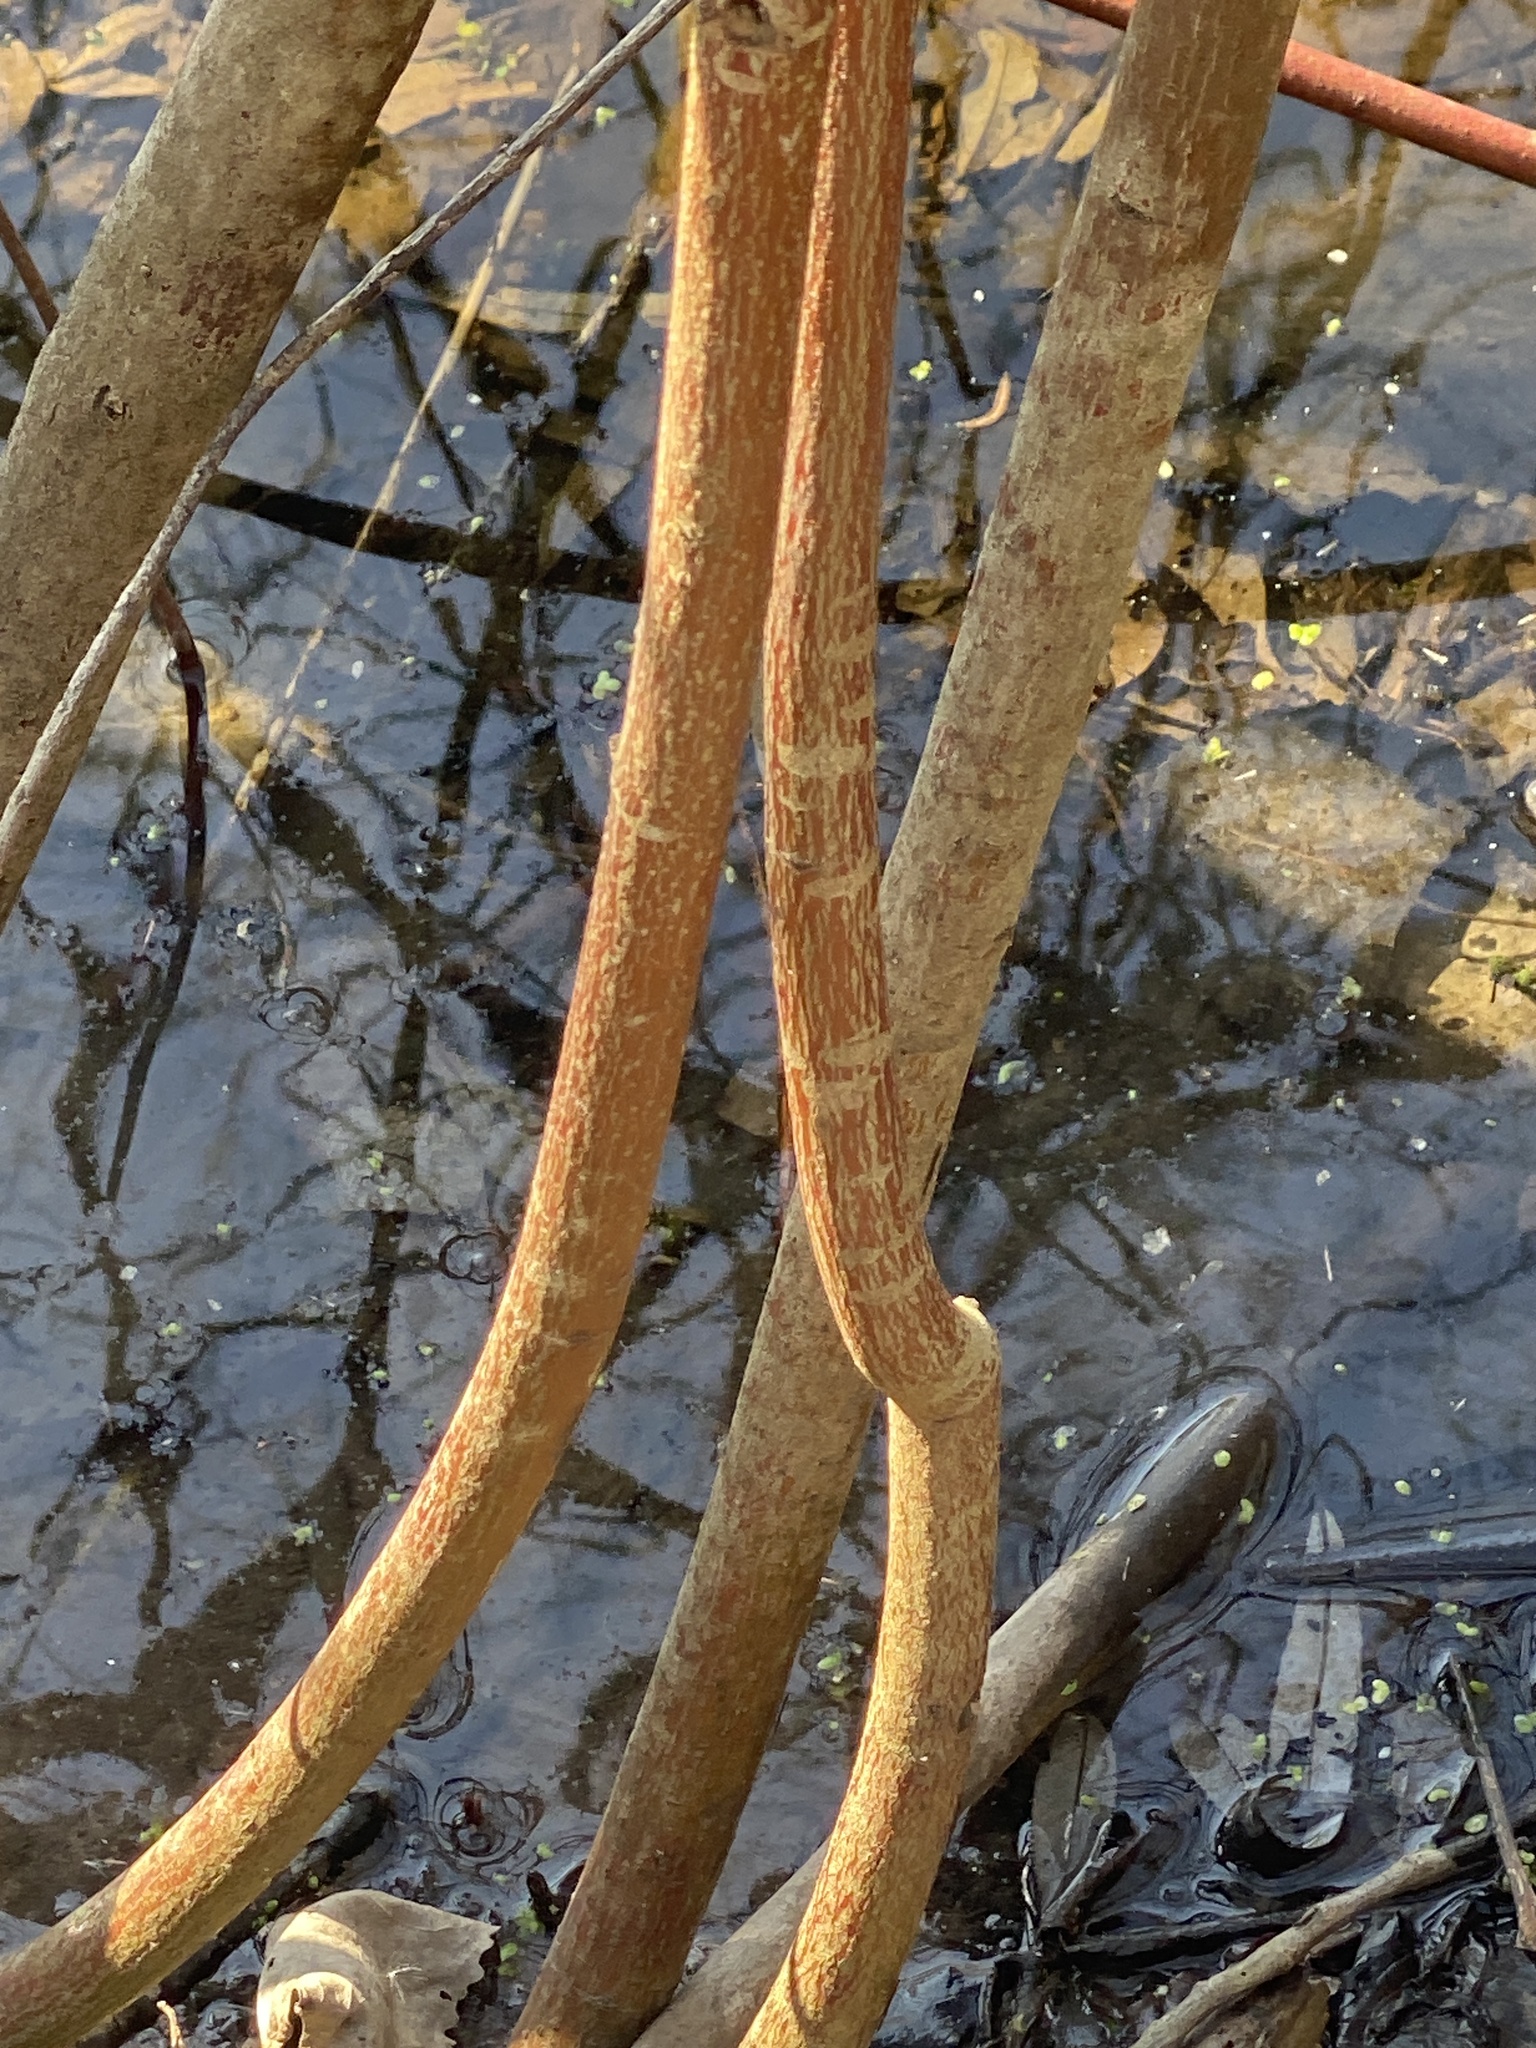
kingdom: Plantae
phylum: Tracheophyta
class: Magnoliopsida
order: Cornales
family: Cornaceae
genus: Cornus
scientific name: Cornus amomum
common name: Silky dogwood
